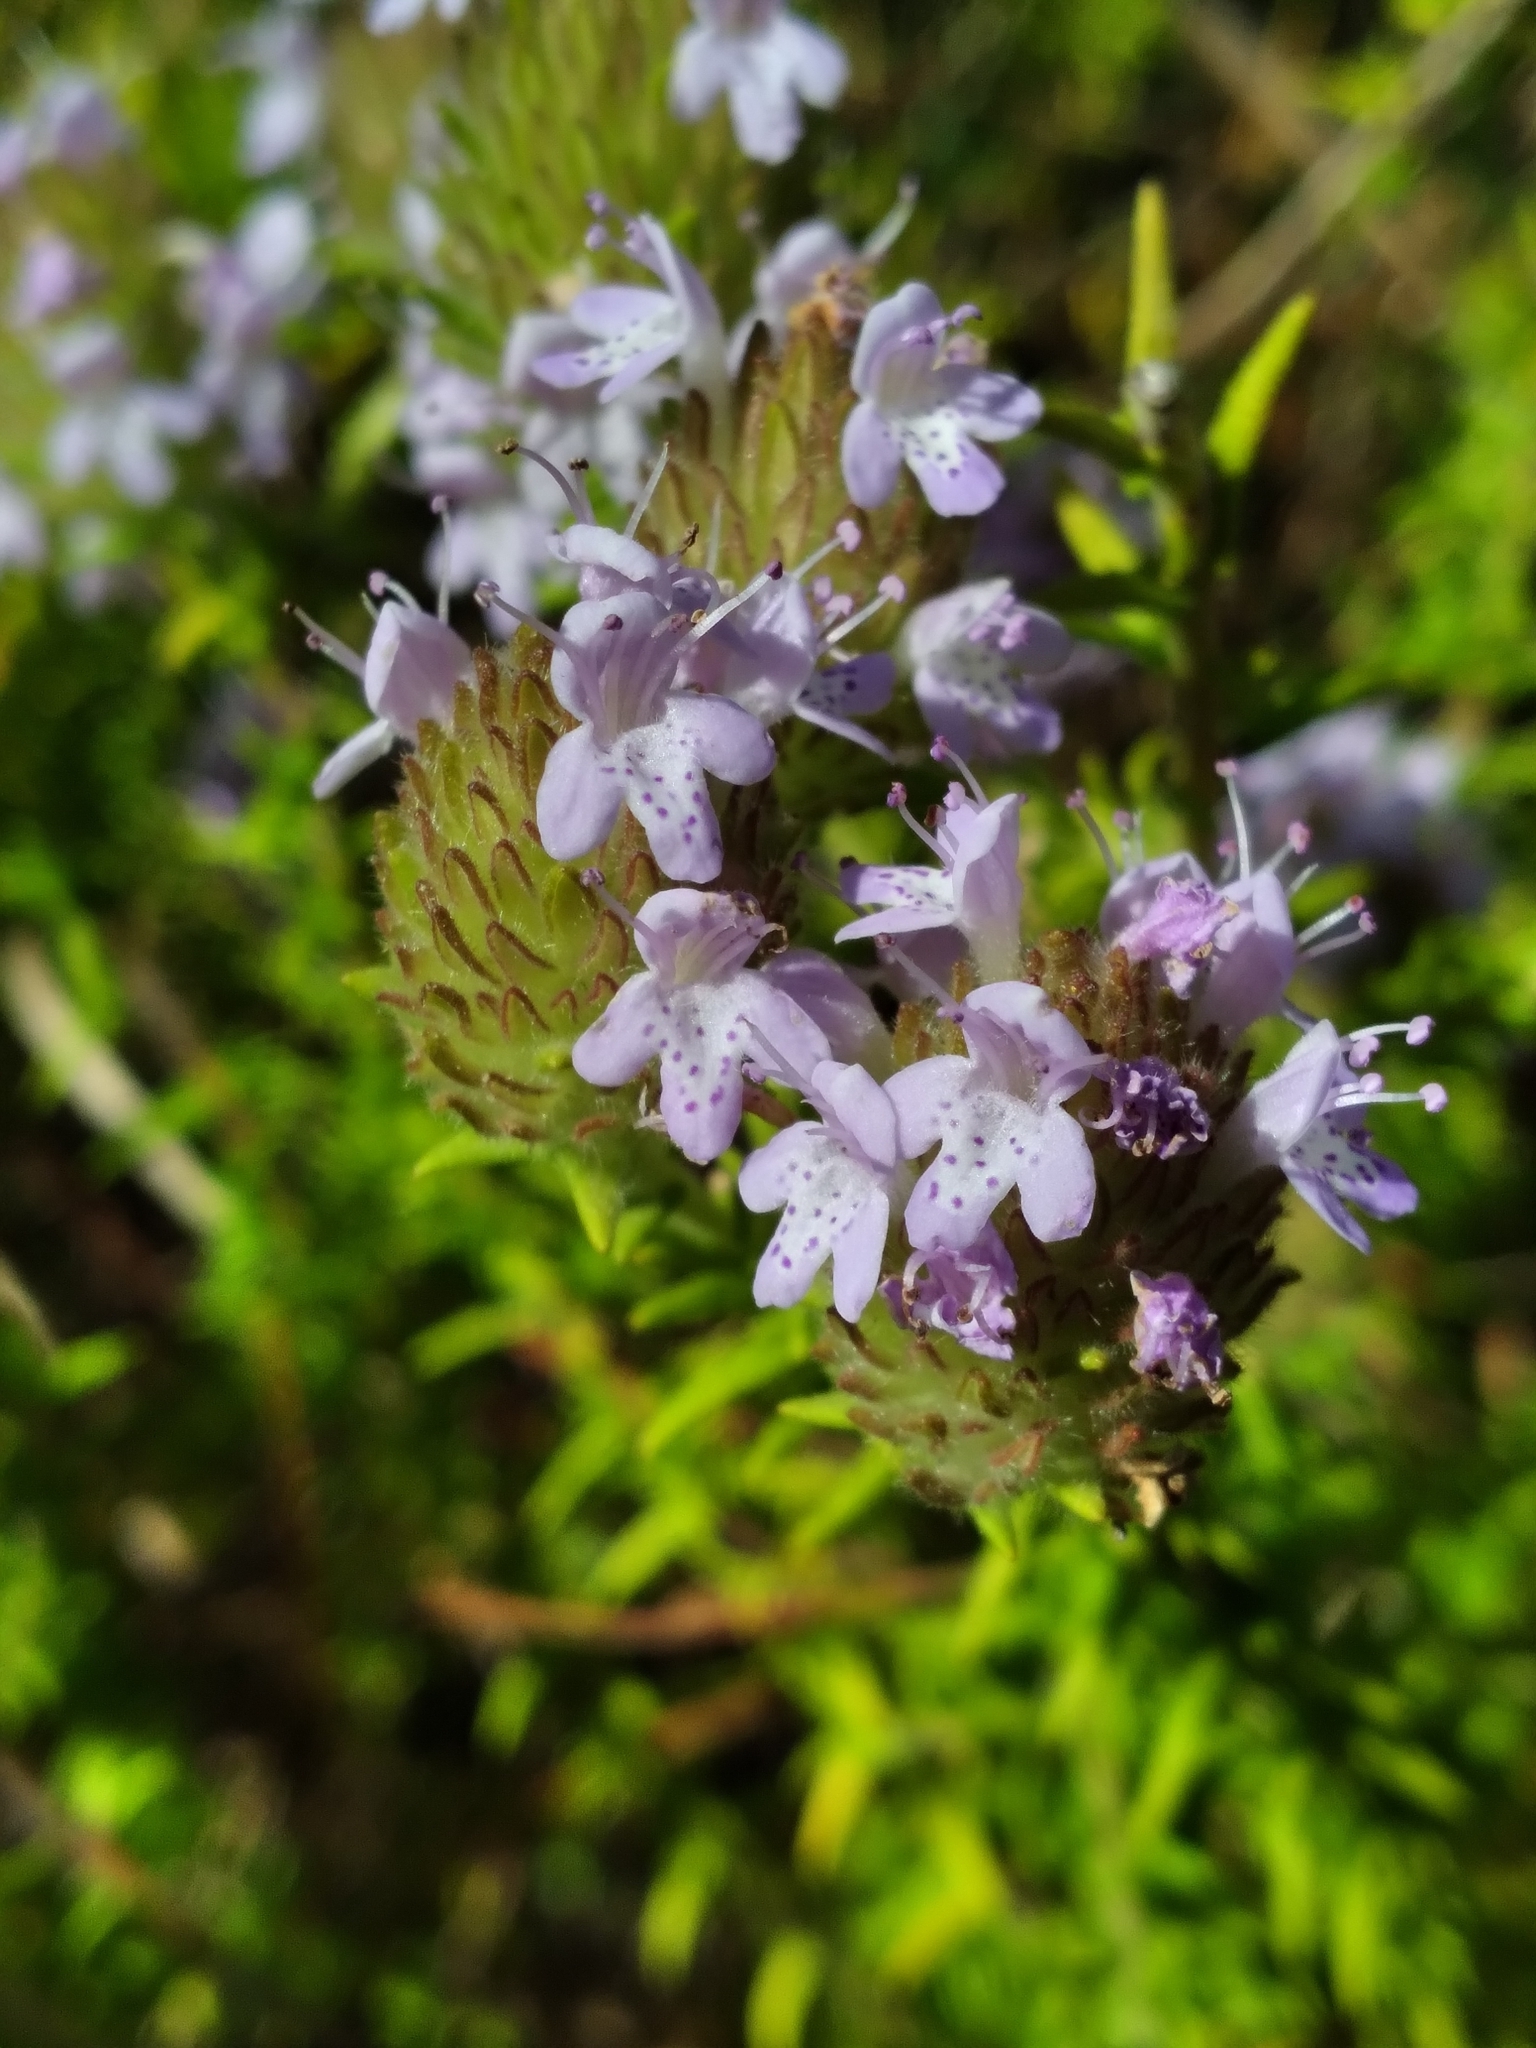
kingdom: Plantae
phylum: Tracheophyta
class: Magnoliopsida
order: Lamiales
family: Lamiaceae
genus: Piloblephis
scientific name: Piloblephis rigida
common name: Wild pennyroyal
